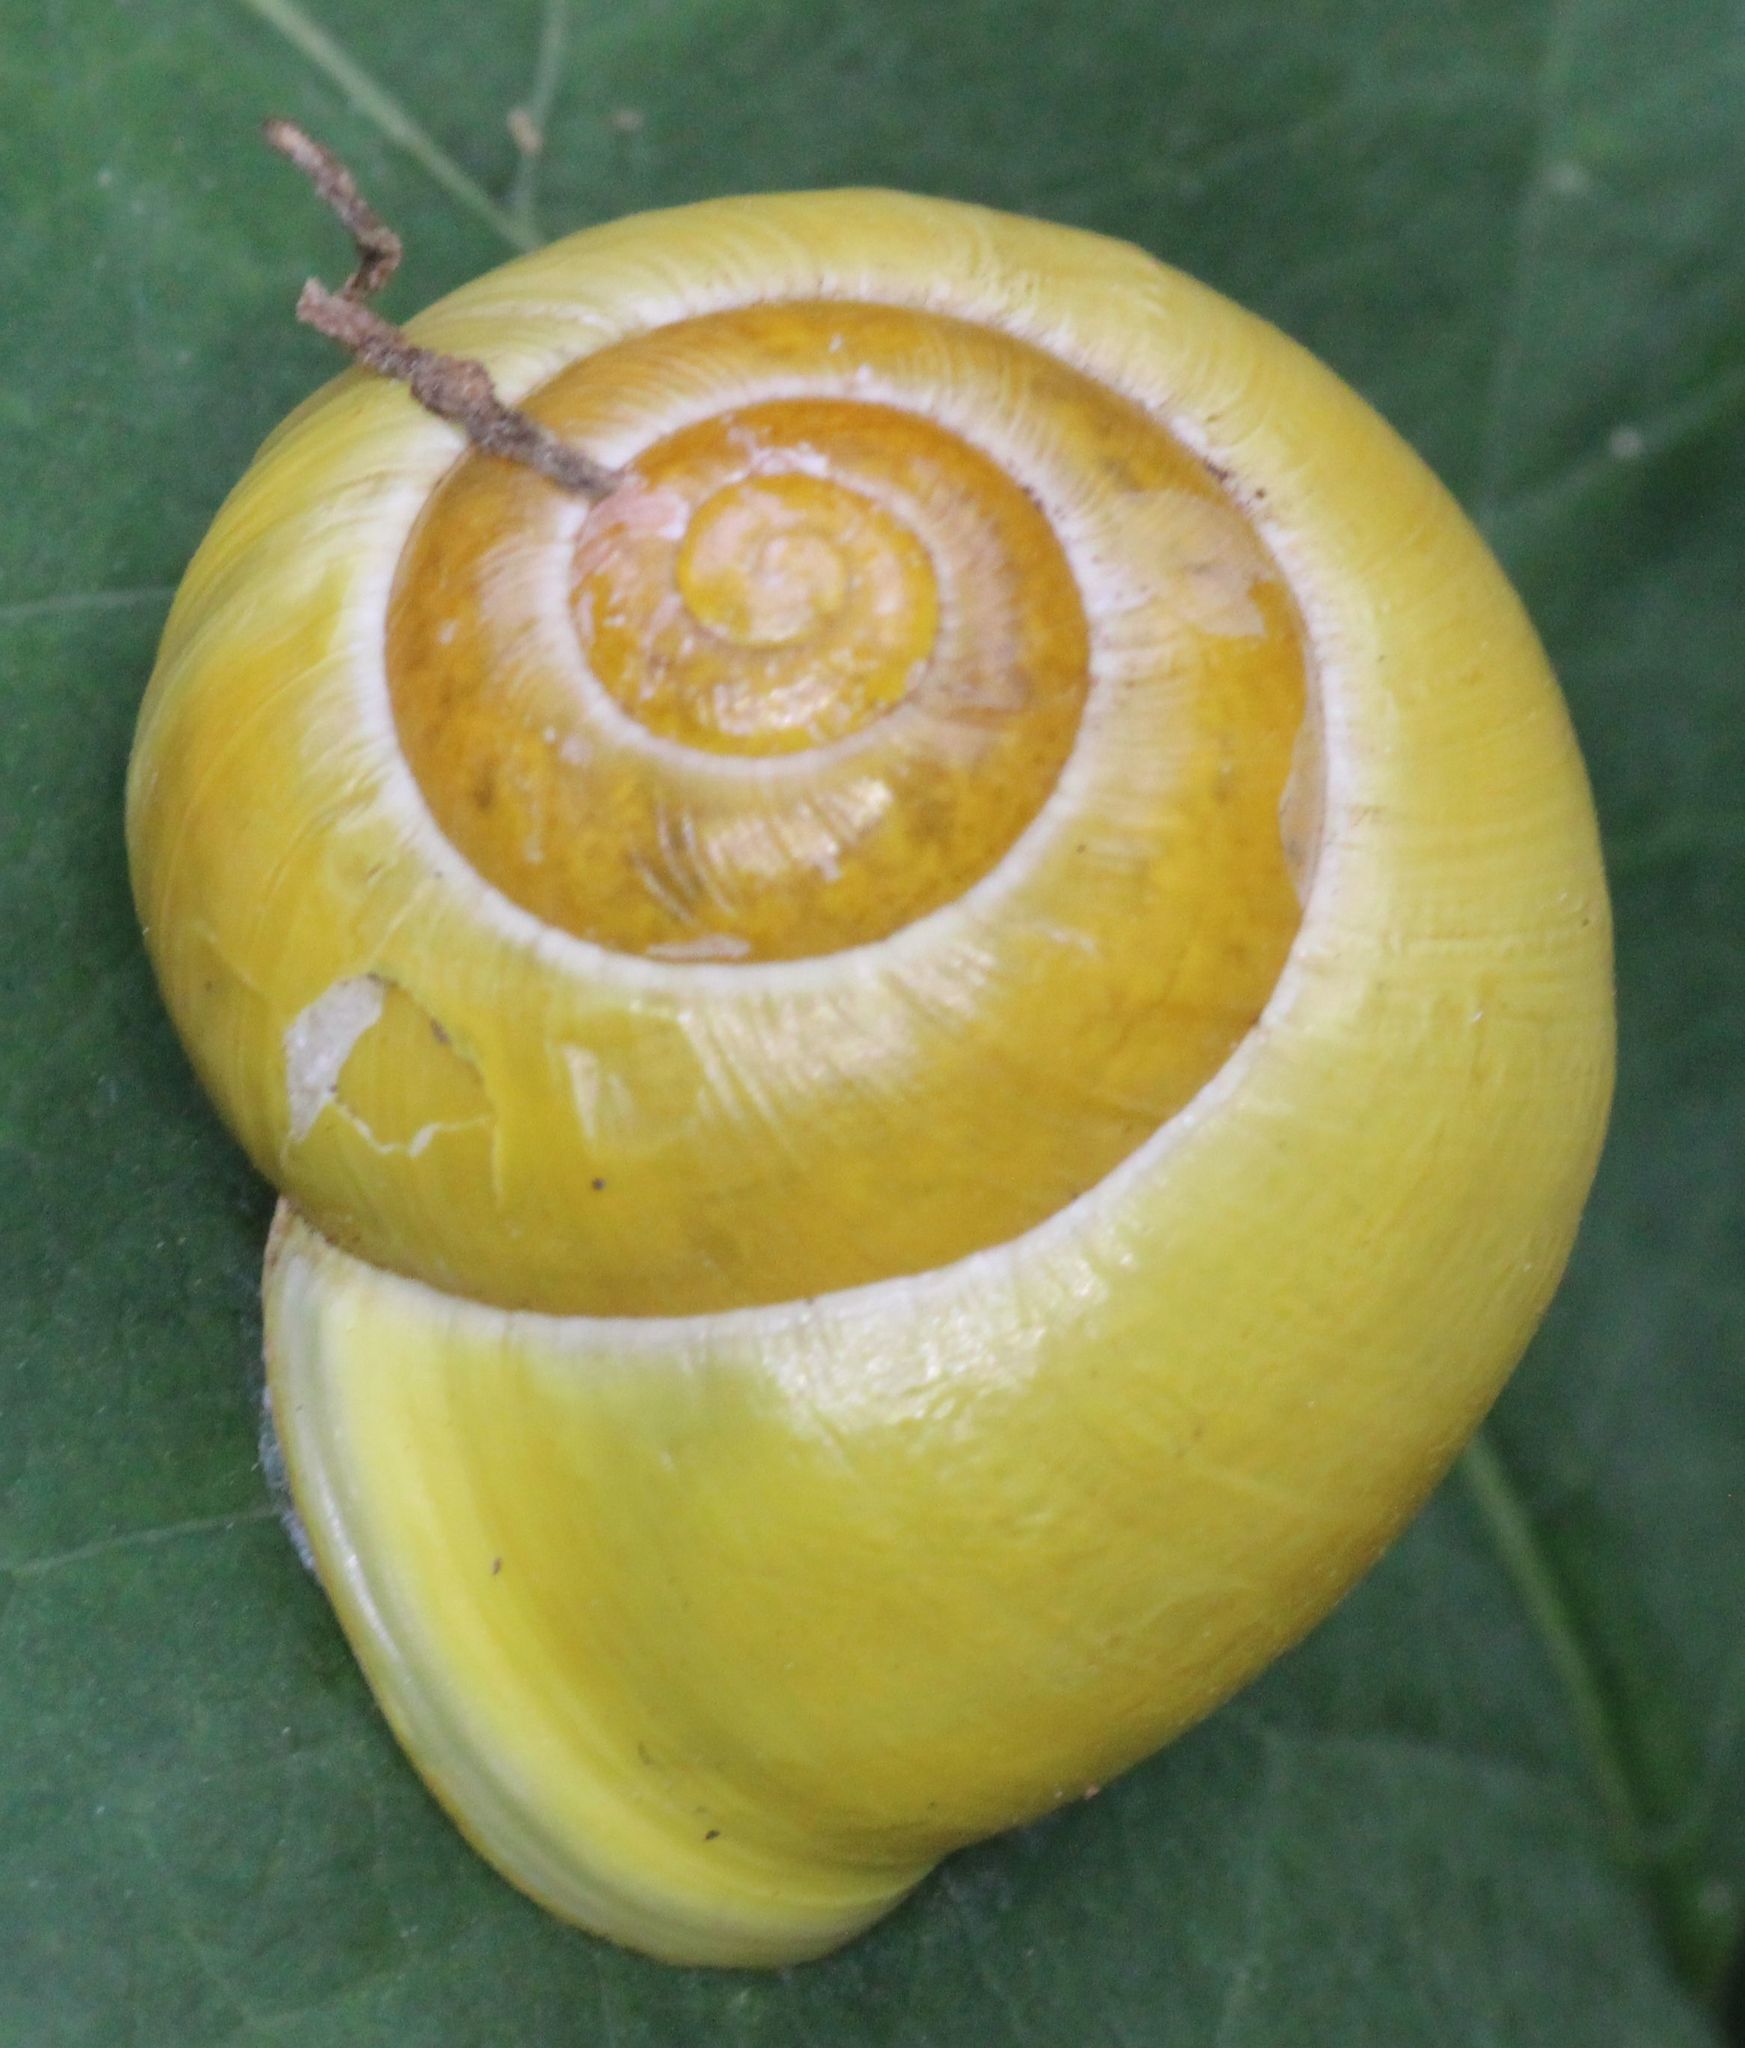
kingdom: Animalia
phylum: Mollusca
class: Gastropoda
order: Stylommatophora
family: Helicidae
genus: Cepaea
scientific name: Cepaea hortensis
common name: White-lip gardensnail
